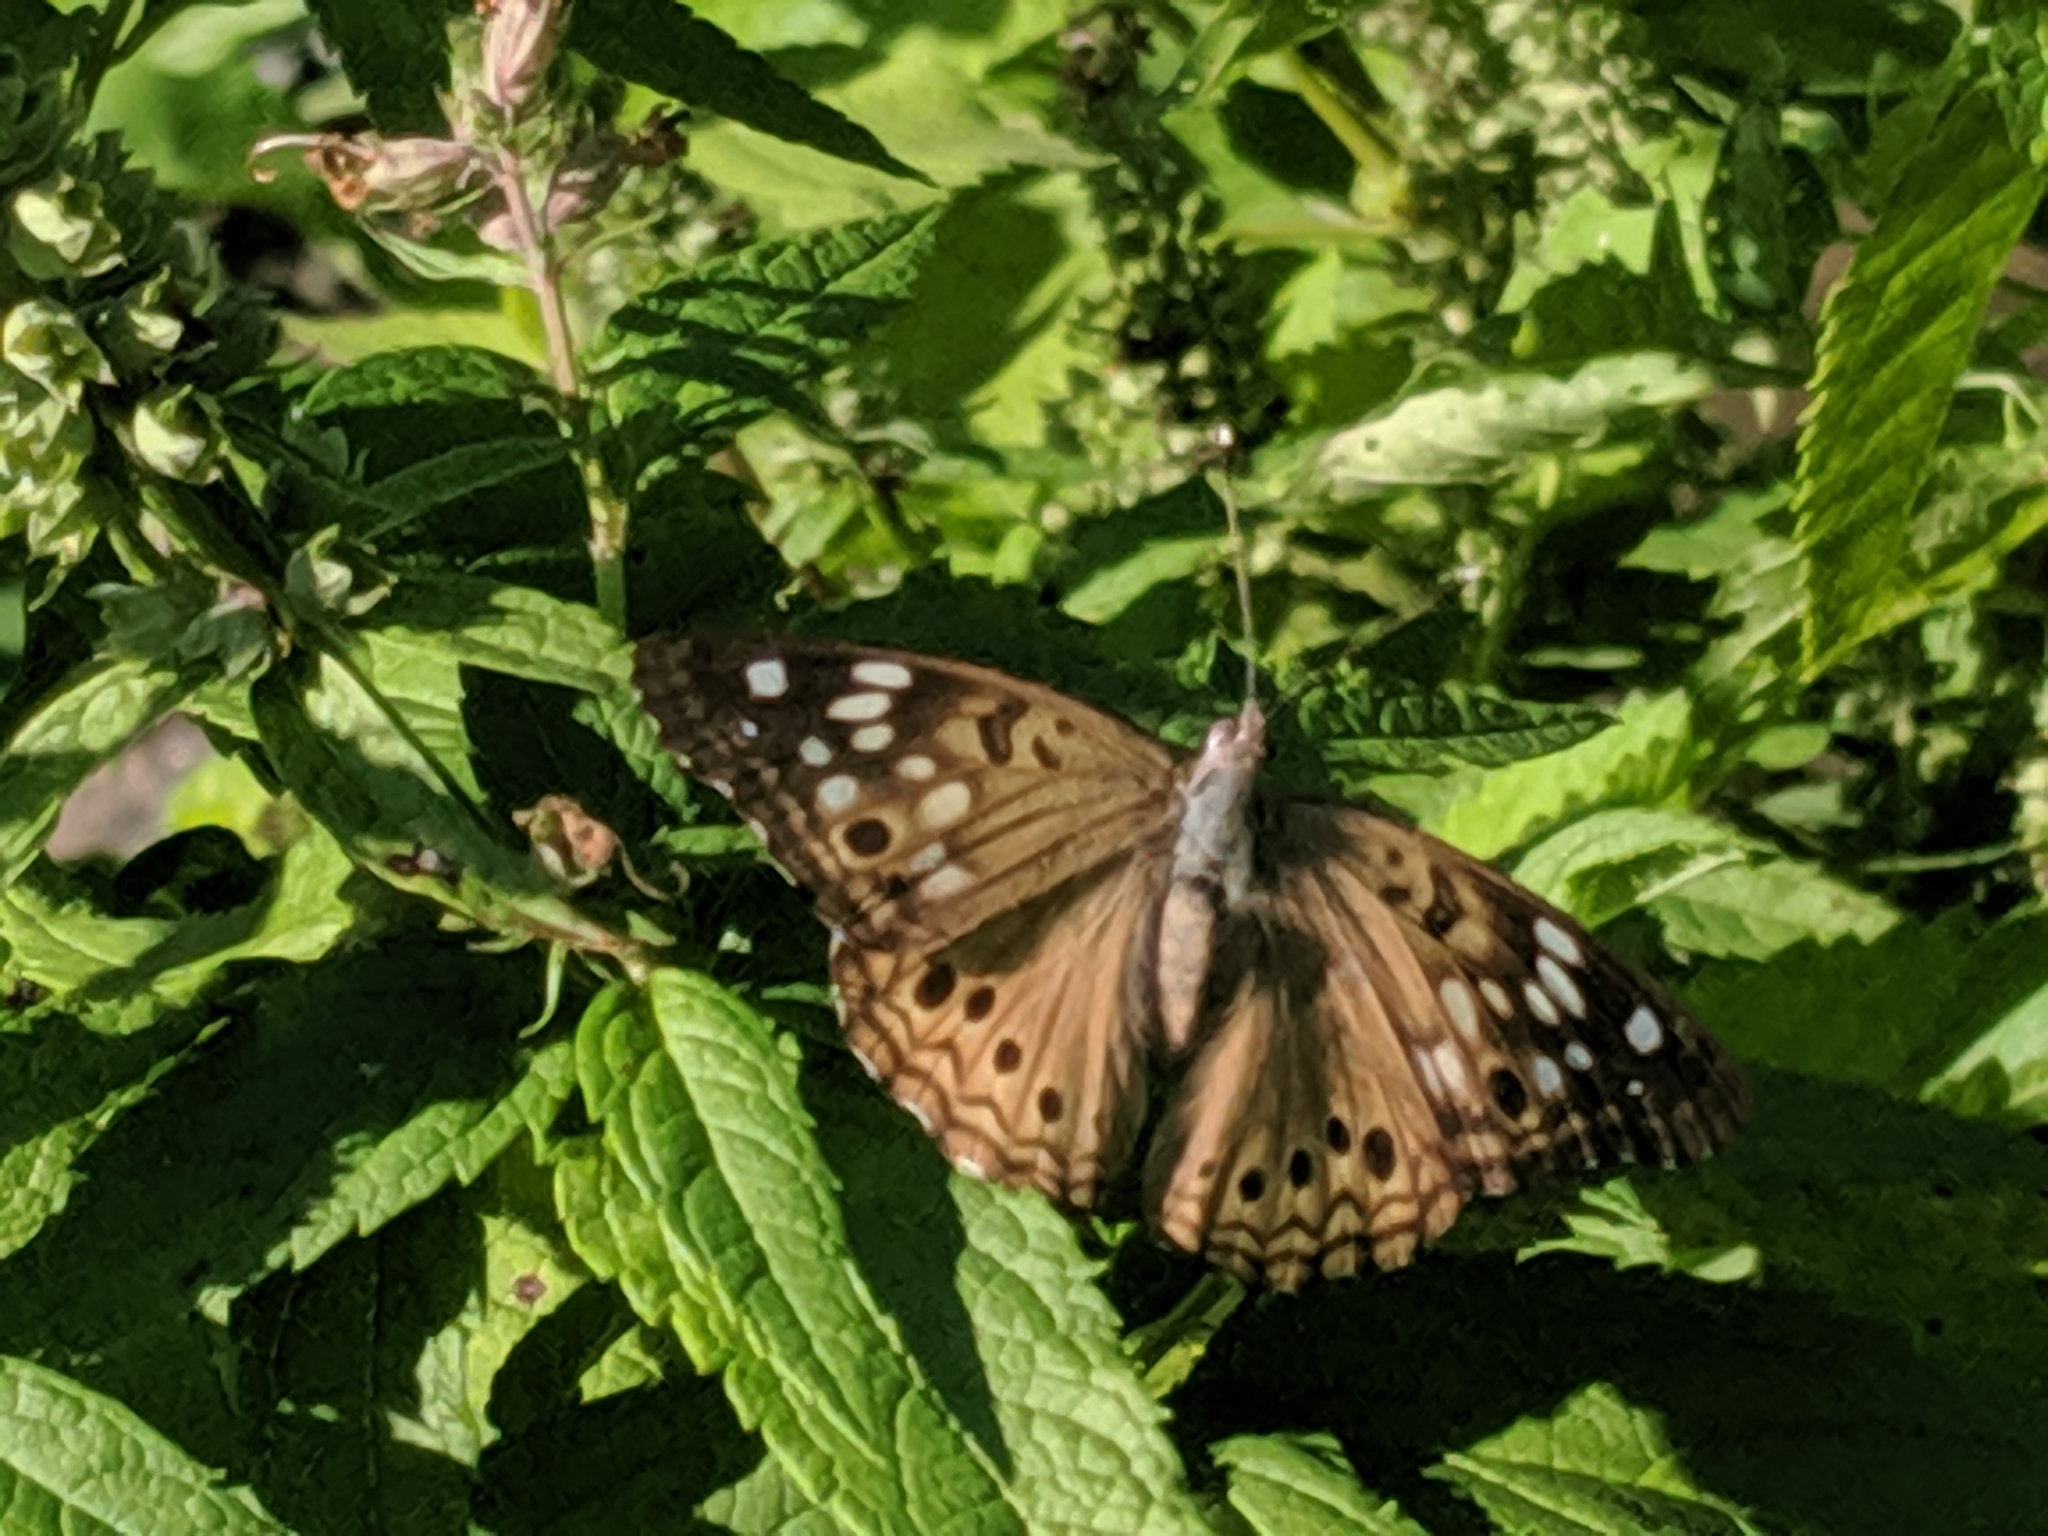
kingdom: Animalia
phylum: Arthropoda
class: Insecta
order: Lepidoptera
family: Nymphalidae
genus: Asterocampa
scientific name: Asterocampa celtis
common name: Hackberry emperor
